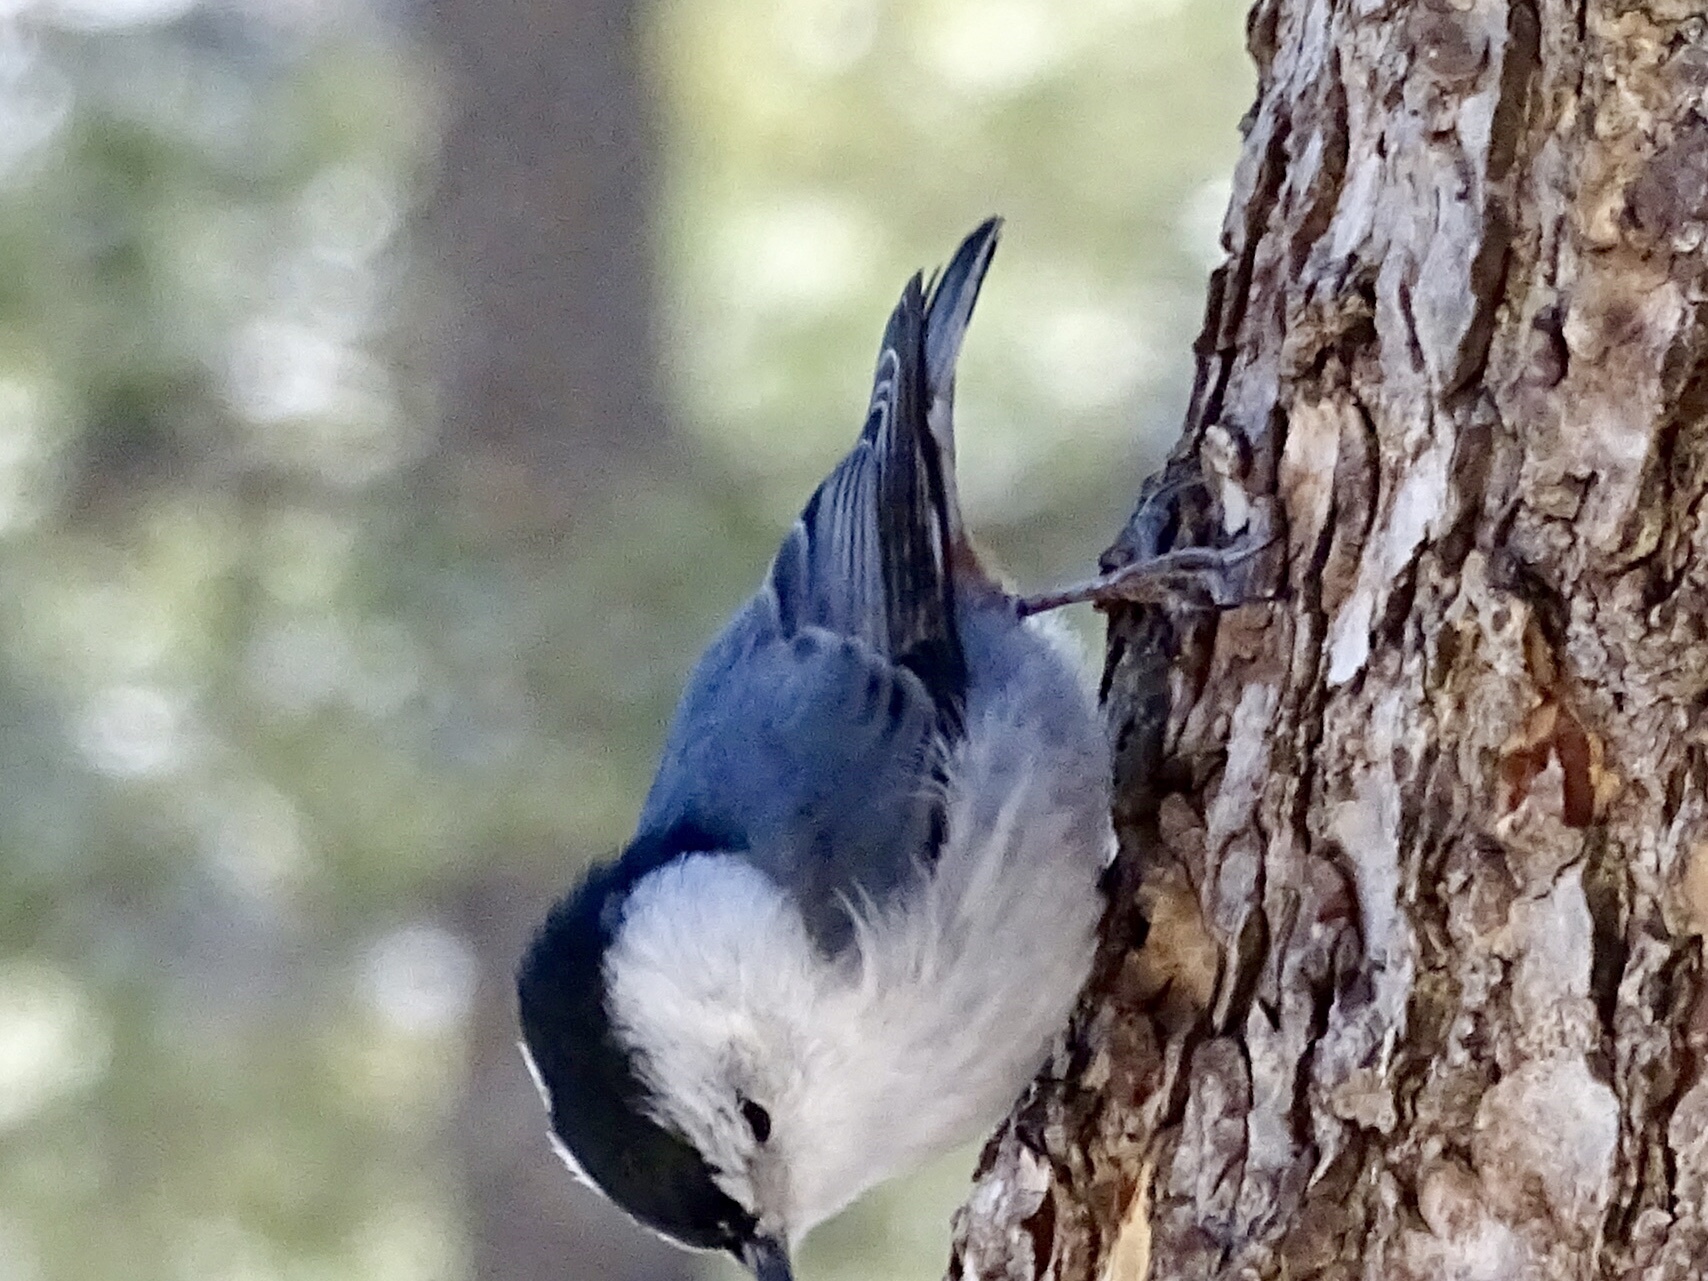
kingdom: Animalia
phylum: Chordata
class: Aves
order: Passeriformes
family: Sittidae
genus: Sitta
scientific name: Sitta carolinensis
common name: White-breasted nuthatch
